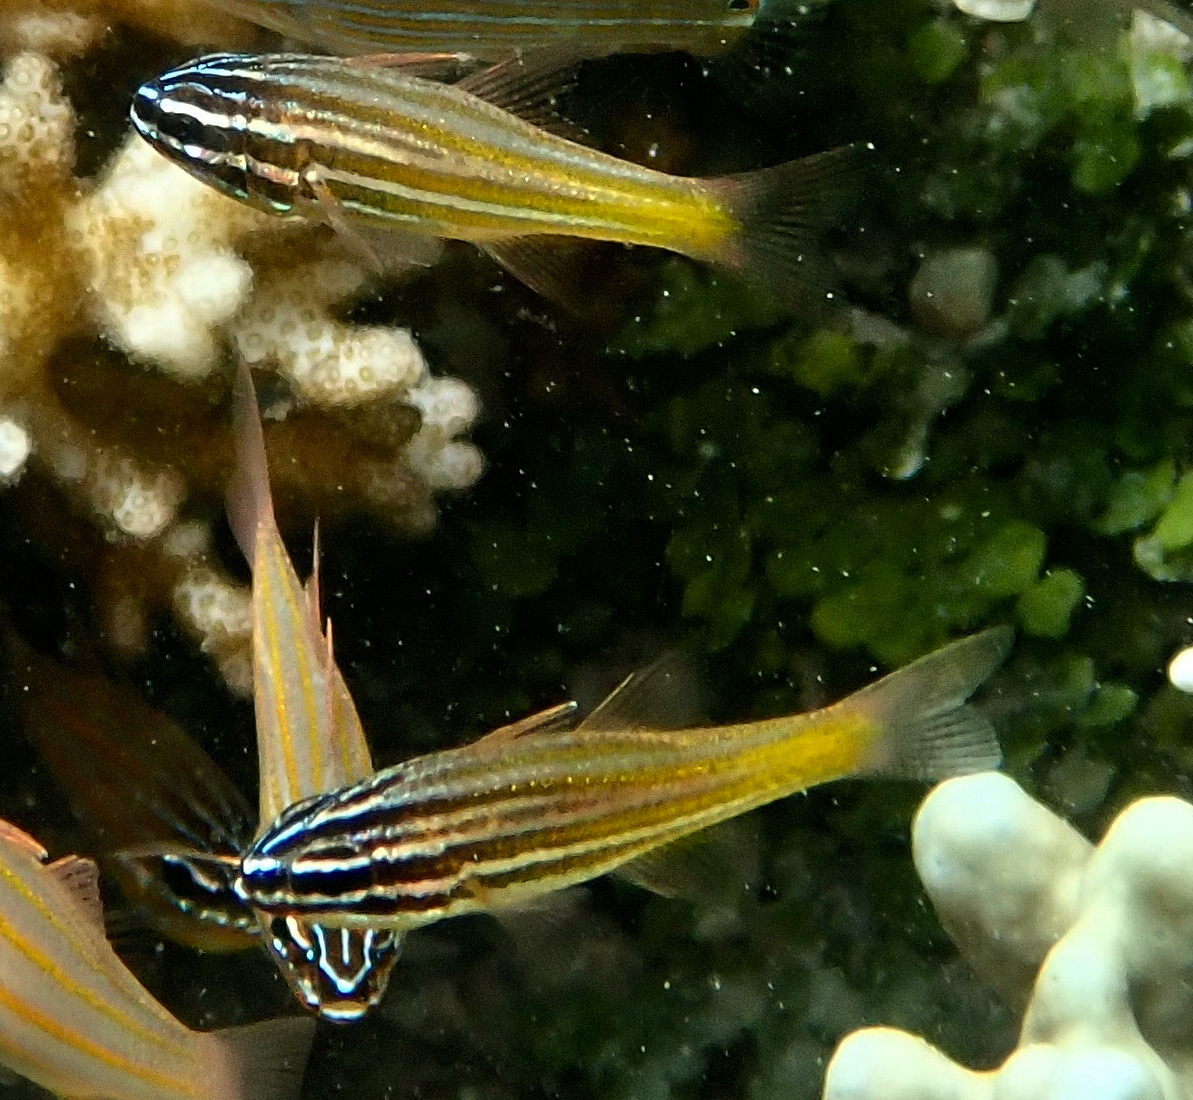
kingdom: Animalia
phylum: Chordata
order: Perciformes
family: Apogonidae
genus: Ostorhinchus
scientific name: Ostorhinchus cyanosoma
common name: Yellow-striped cardinalfish
